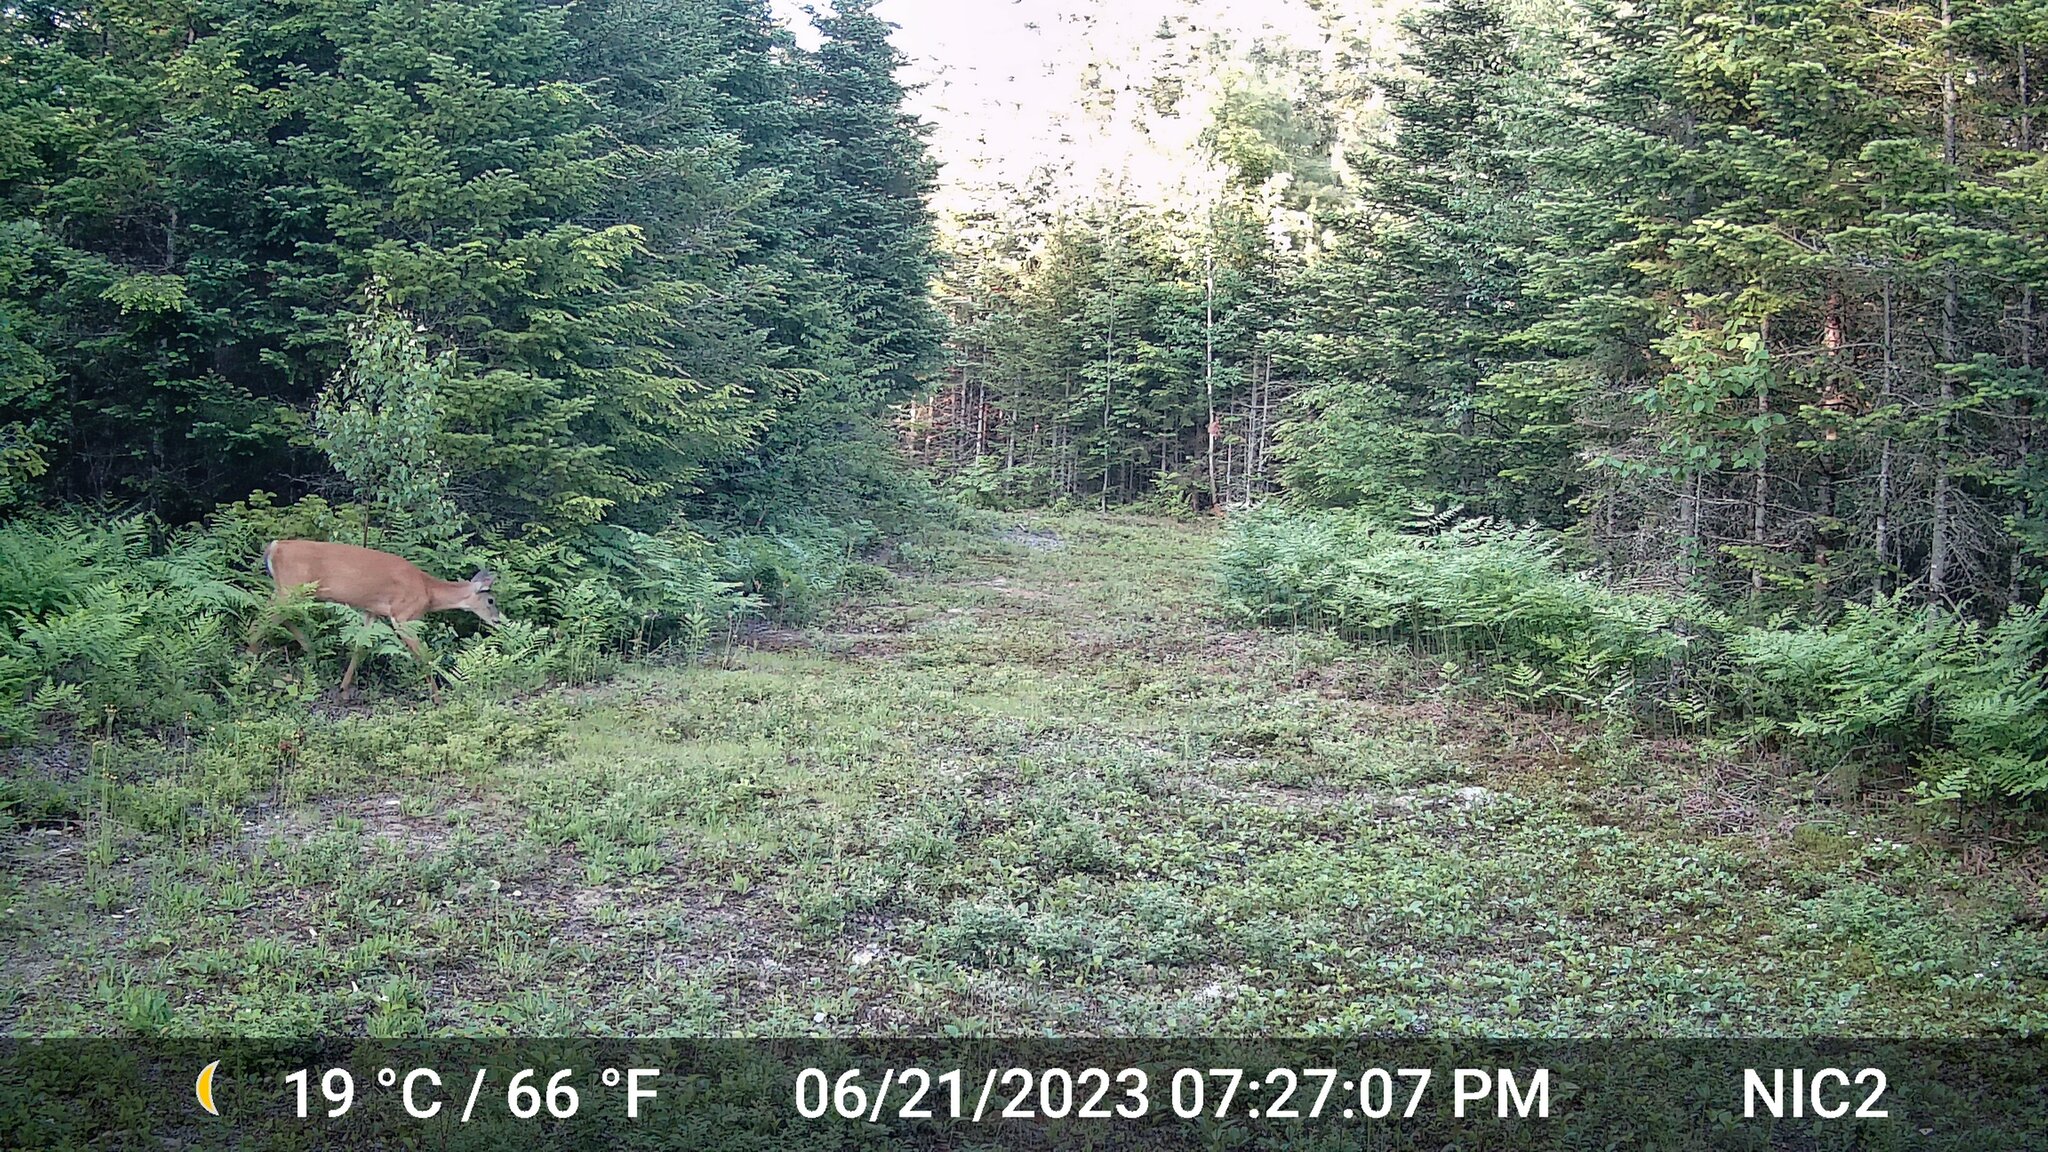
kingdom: Animalia
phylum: Chordata
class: Mammalia
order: Artiodactyla
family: Cervidae
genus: Odocoileus
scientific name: Odocoileus virginianus
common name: White-tailed deer
